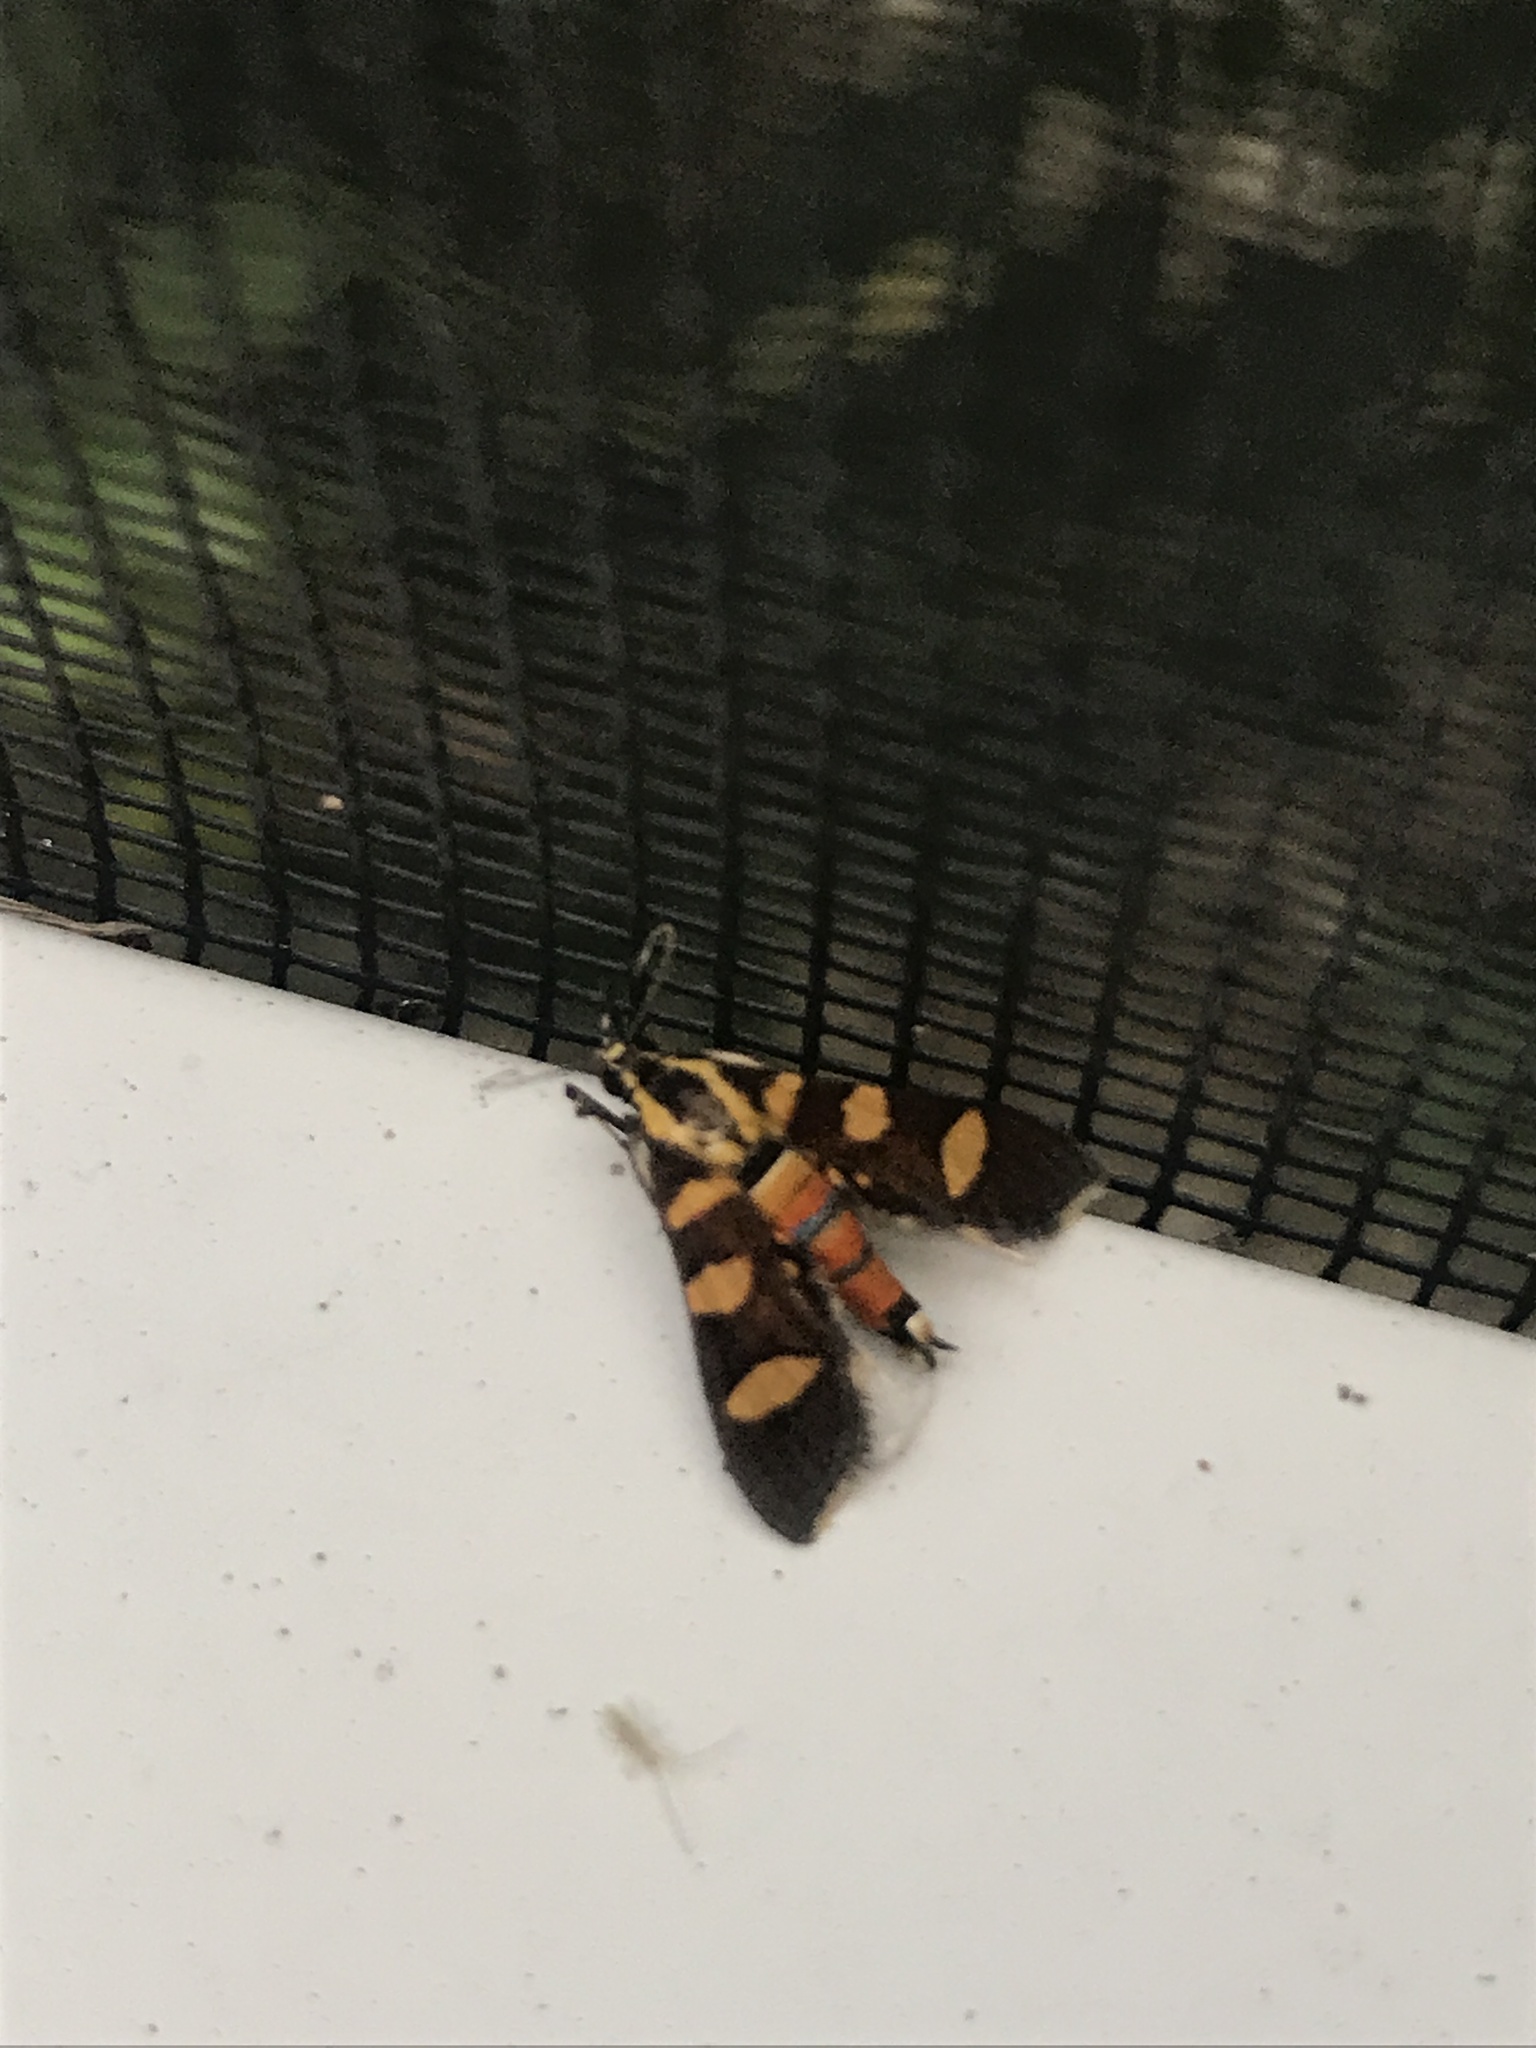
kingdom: Animalia
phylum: Arthropoda
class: Insecta
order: Lepidoptera
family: Crambidae
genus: Syngamia
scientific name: Syngamia florella
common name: Orange-spotted flower moth
